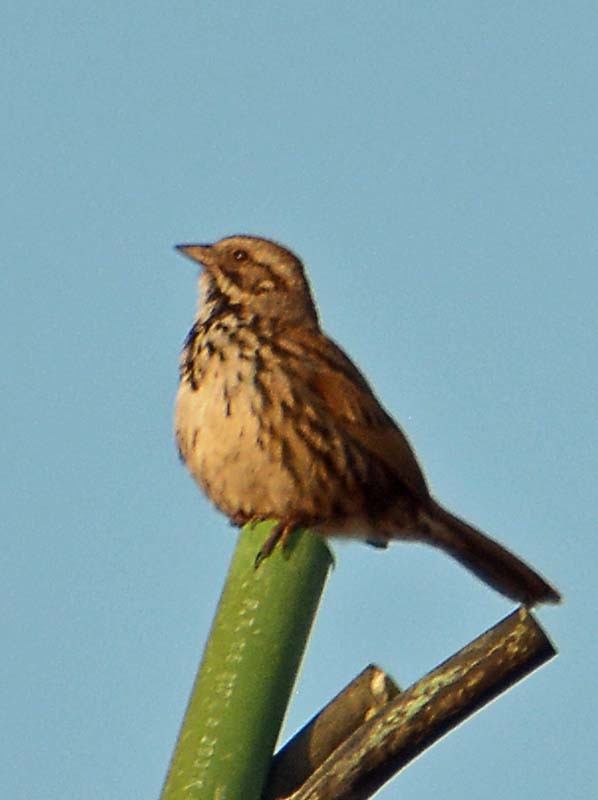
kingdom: Animalia
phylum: Chordata
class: Aves
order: Passeriformes
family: Passerellidae
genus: Melospiza
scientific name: Melospiza melodia
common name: Song sparrow
